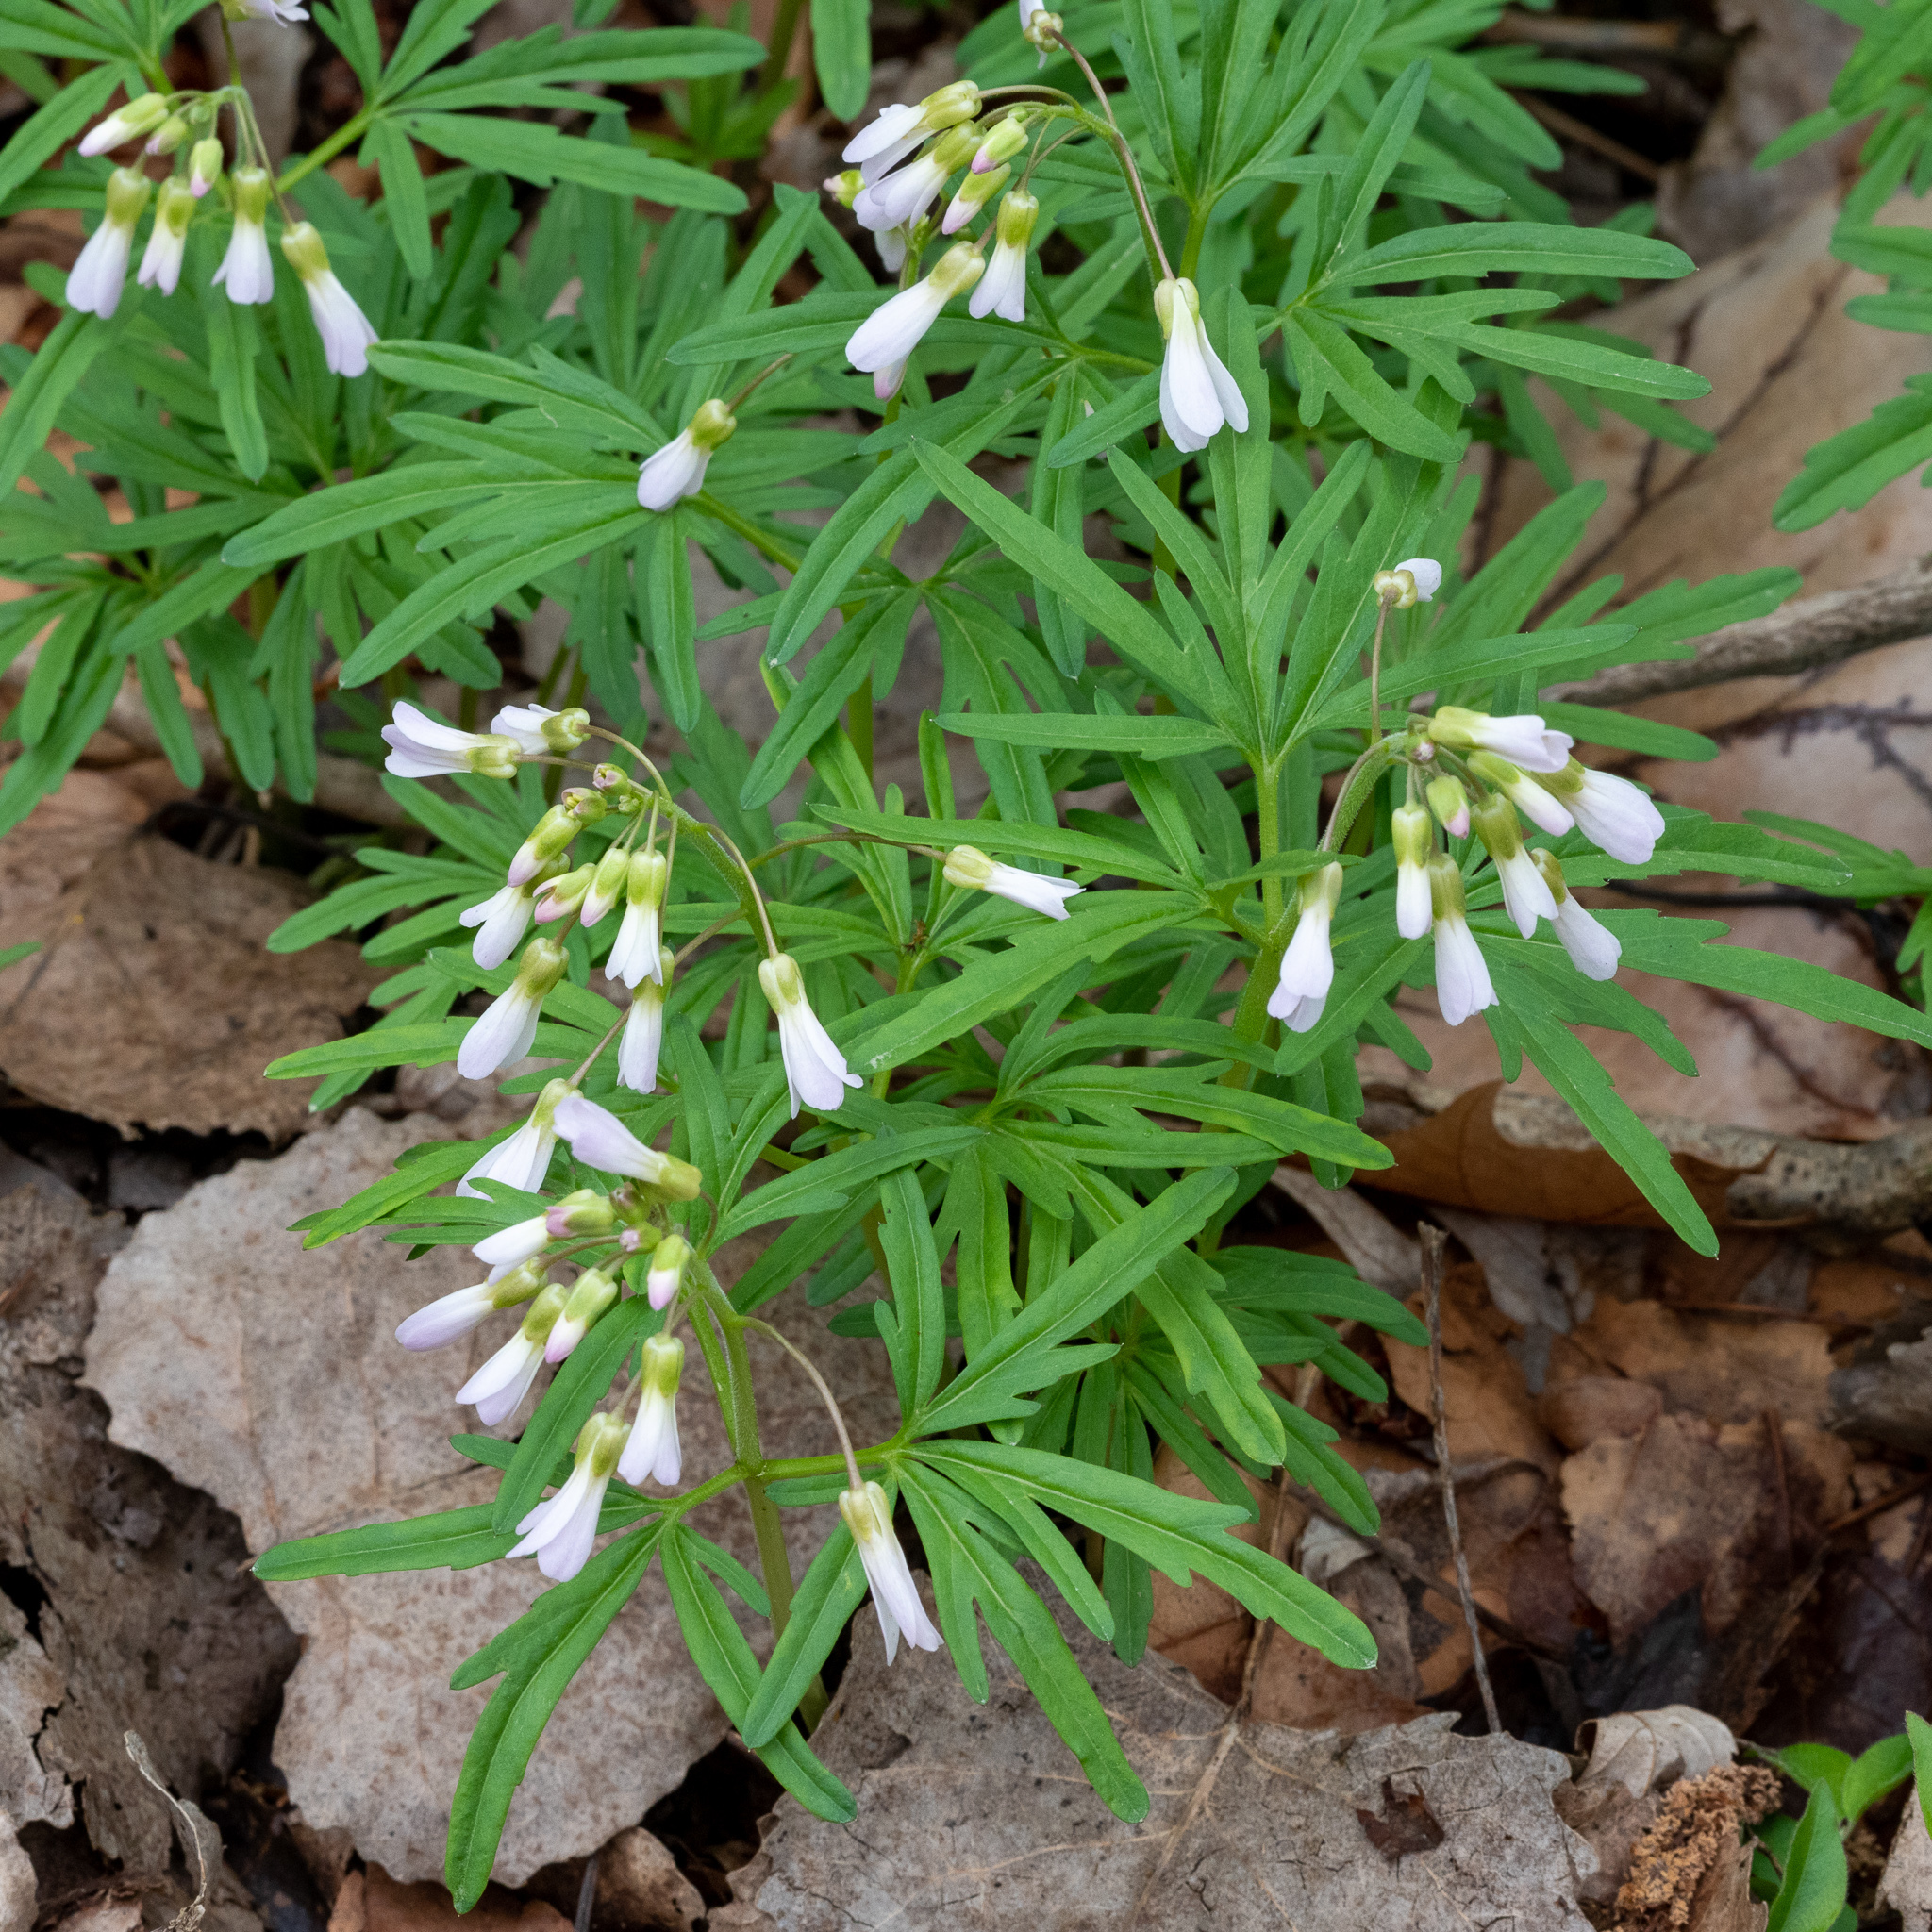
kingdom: Plantae
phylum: Tracheophyta
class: Magnoliopsida
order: Brassicales
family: Brassicaceae
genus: Cardamine
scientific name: Cardamine concatenata
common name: Cut-leaf toothcup
